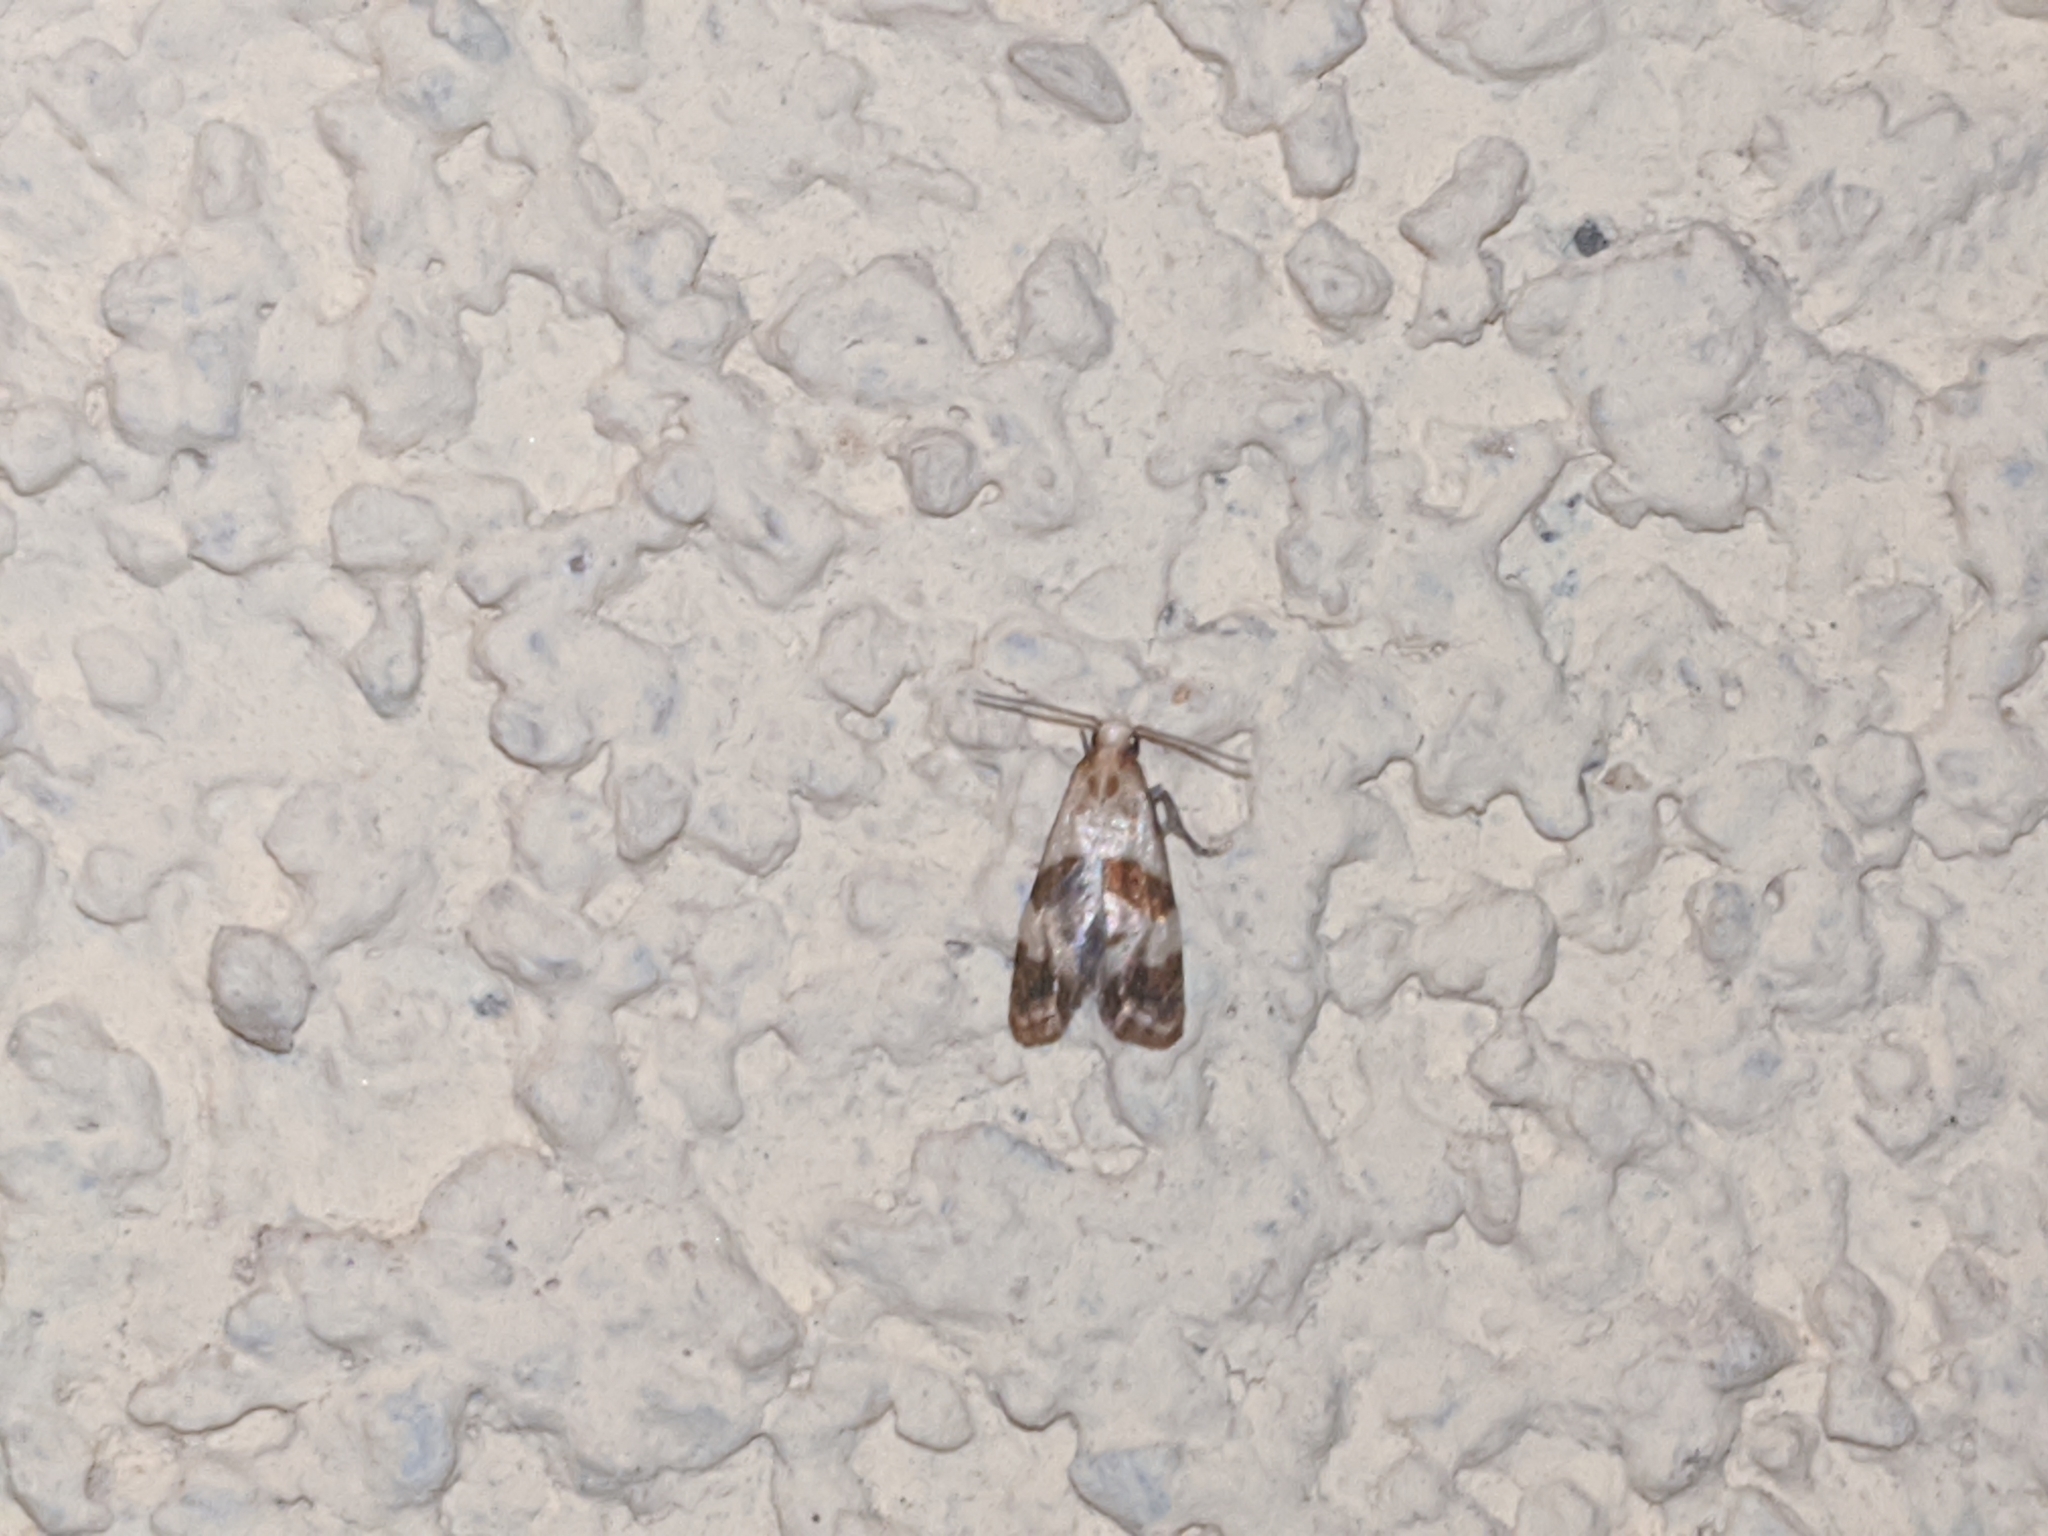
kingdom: Animalia
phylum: Arthropoda
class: Insecta
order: Lepidoptera
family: Tortricidae
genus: Phalonidia
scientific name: Phalonidia contractana
